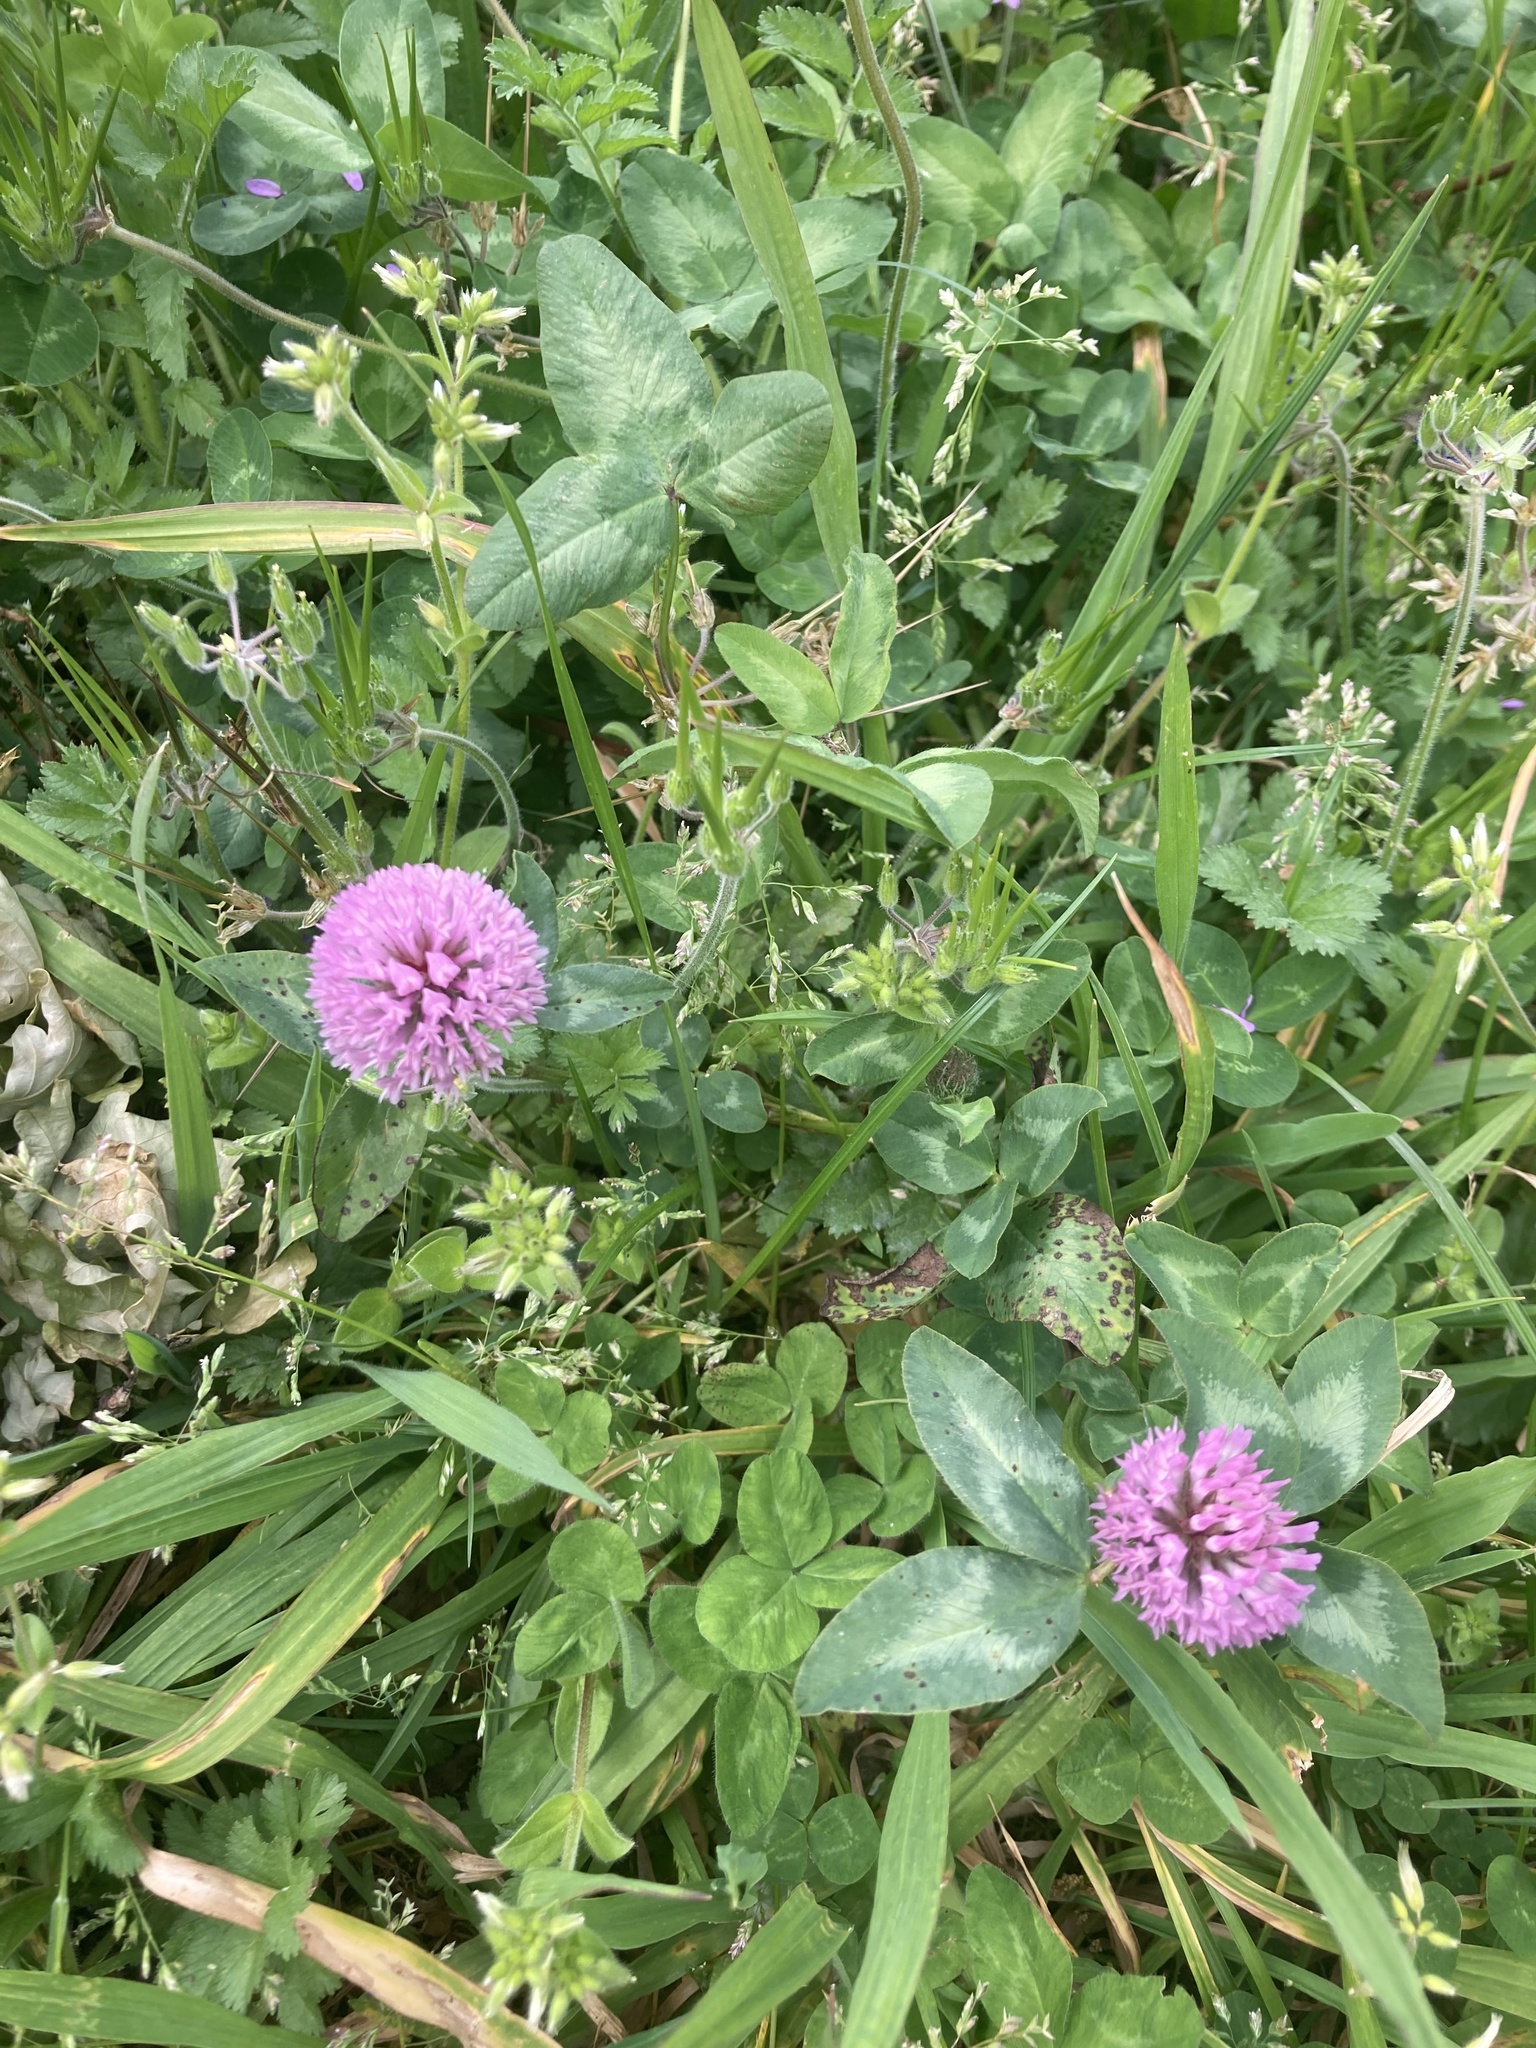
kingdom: Plantae
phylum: Tracheophyta
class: Magnoliopsida
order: Fabales
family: Fabaceae
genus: Trifolium
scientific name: Trifolium pratense
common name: Red clover
